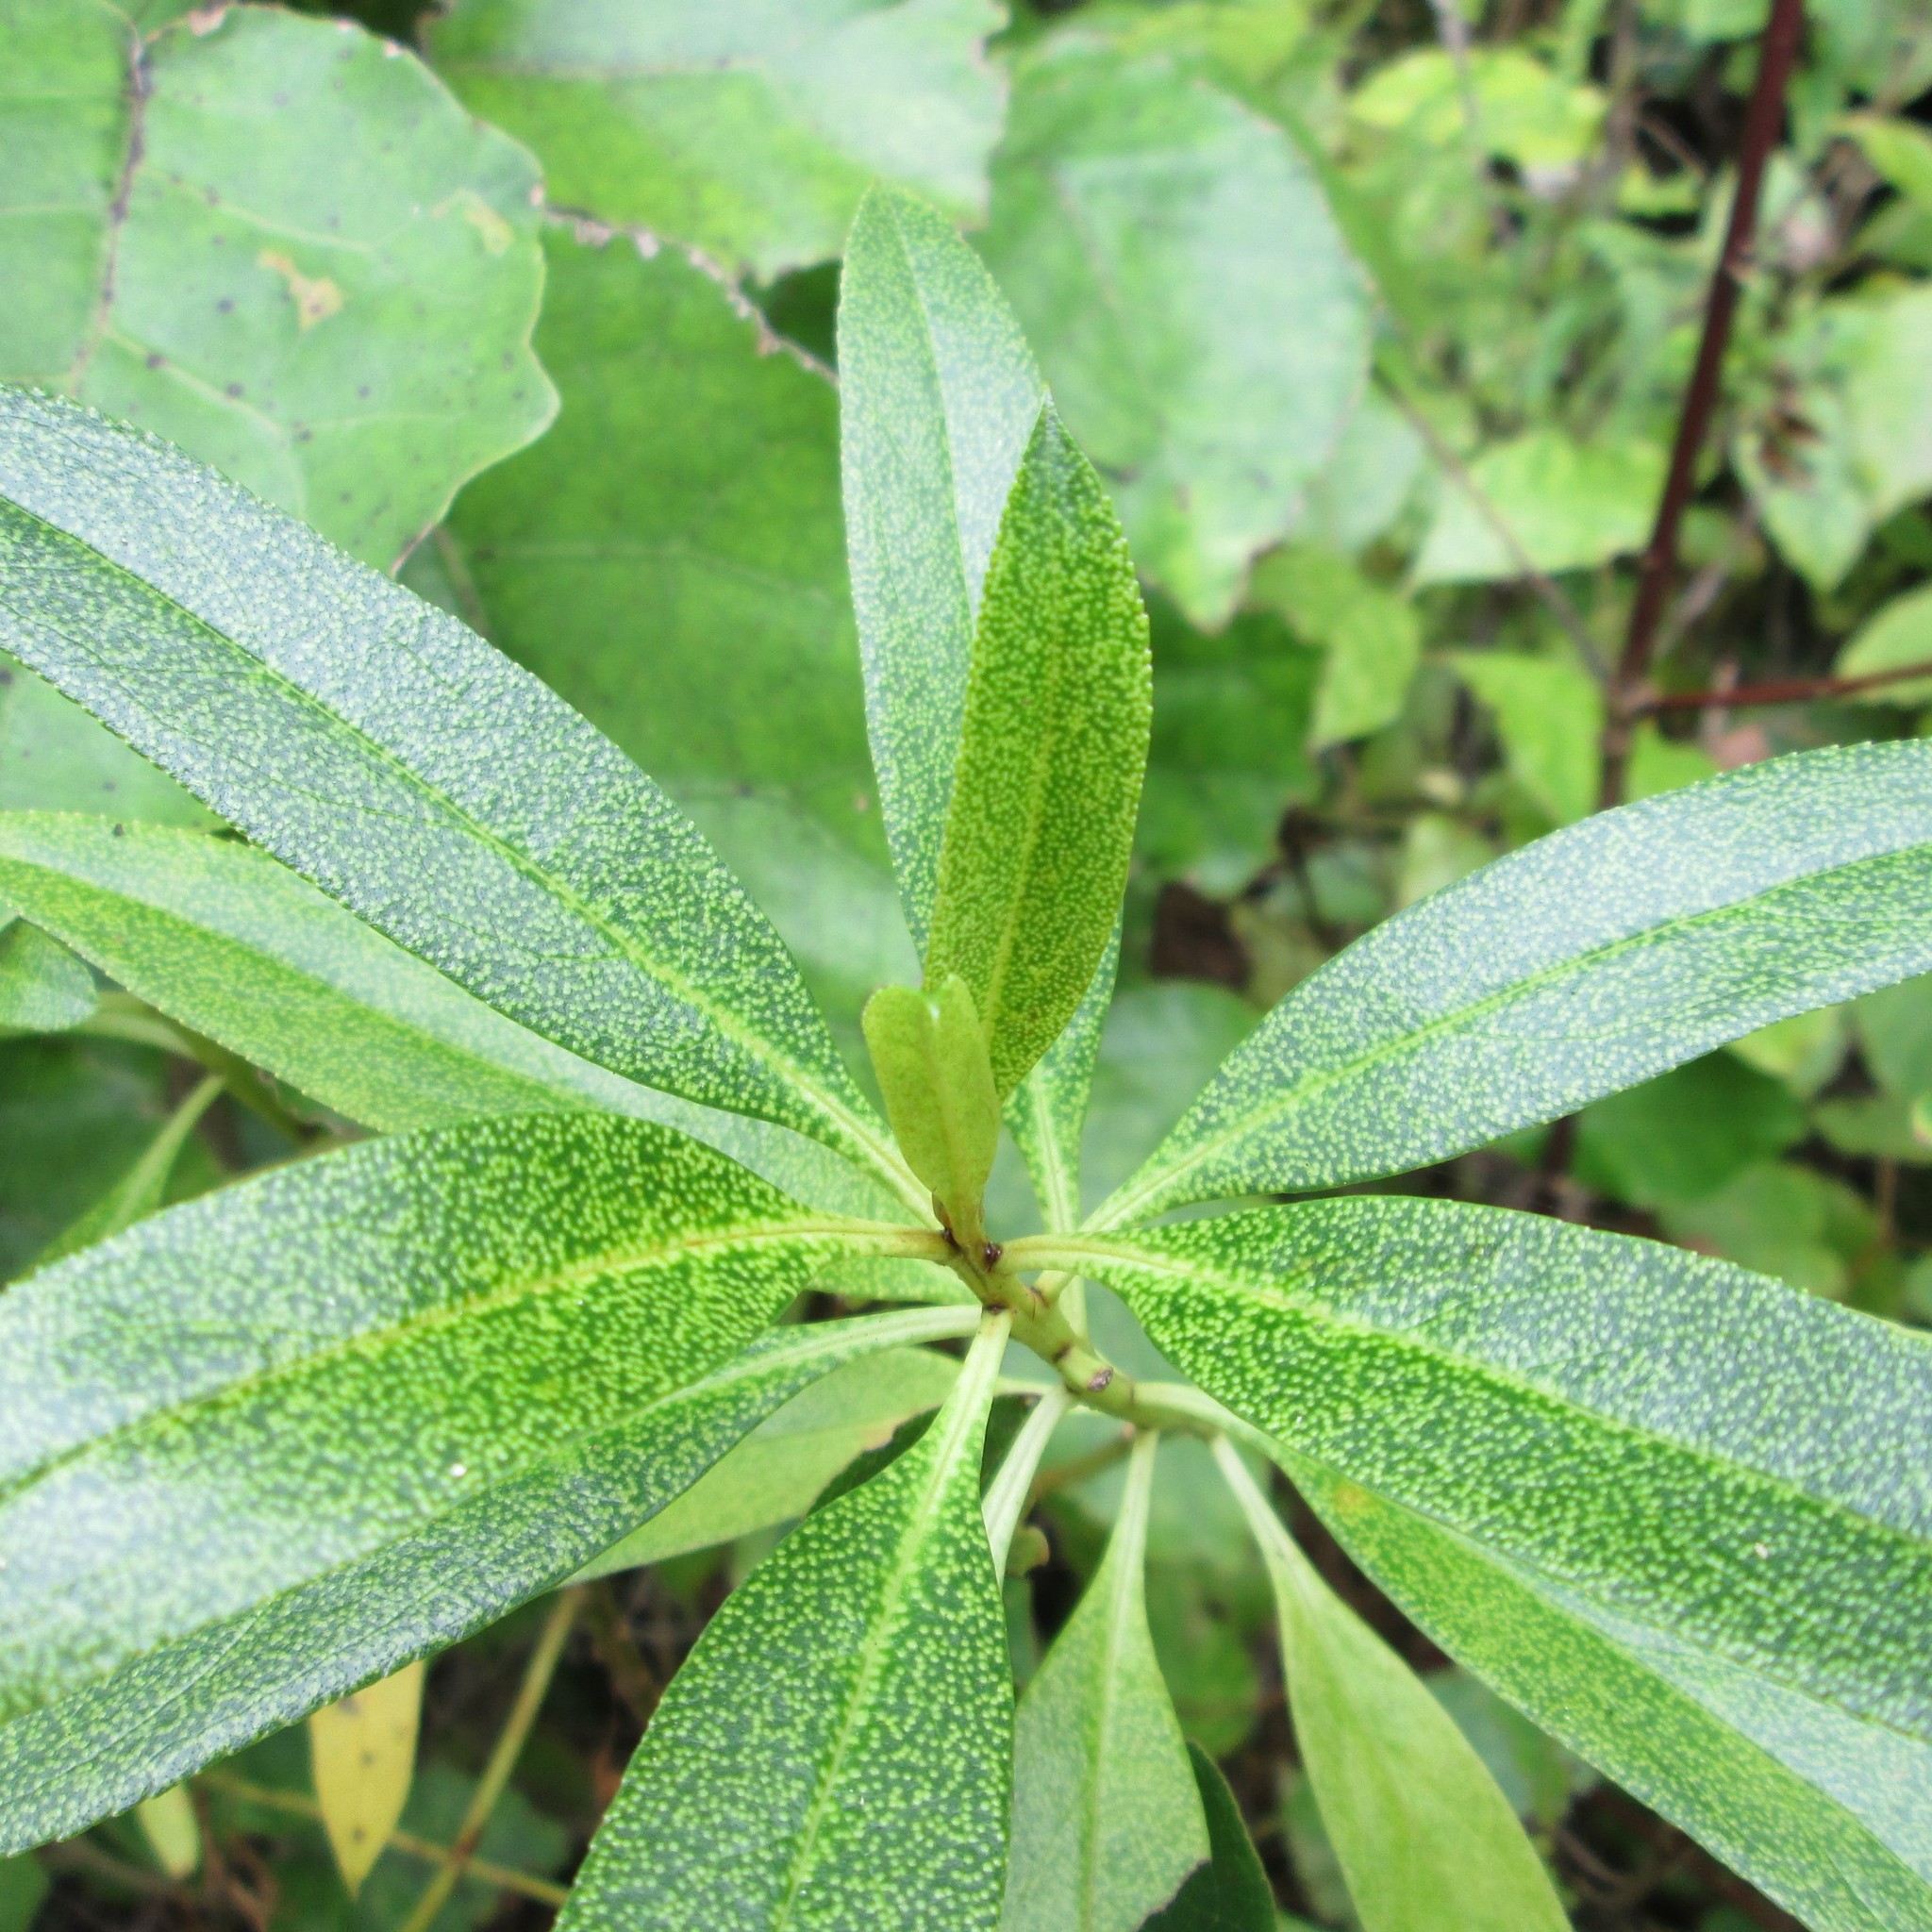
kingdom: Plantae
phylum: Tracheophyta
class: Magnoliopsida
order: Lamiales
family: Scrophulariaceae
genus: Myoporum
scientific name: Myoporum laetum
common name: Ngaio tree
